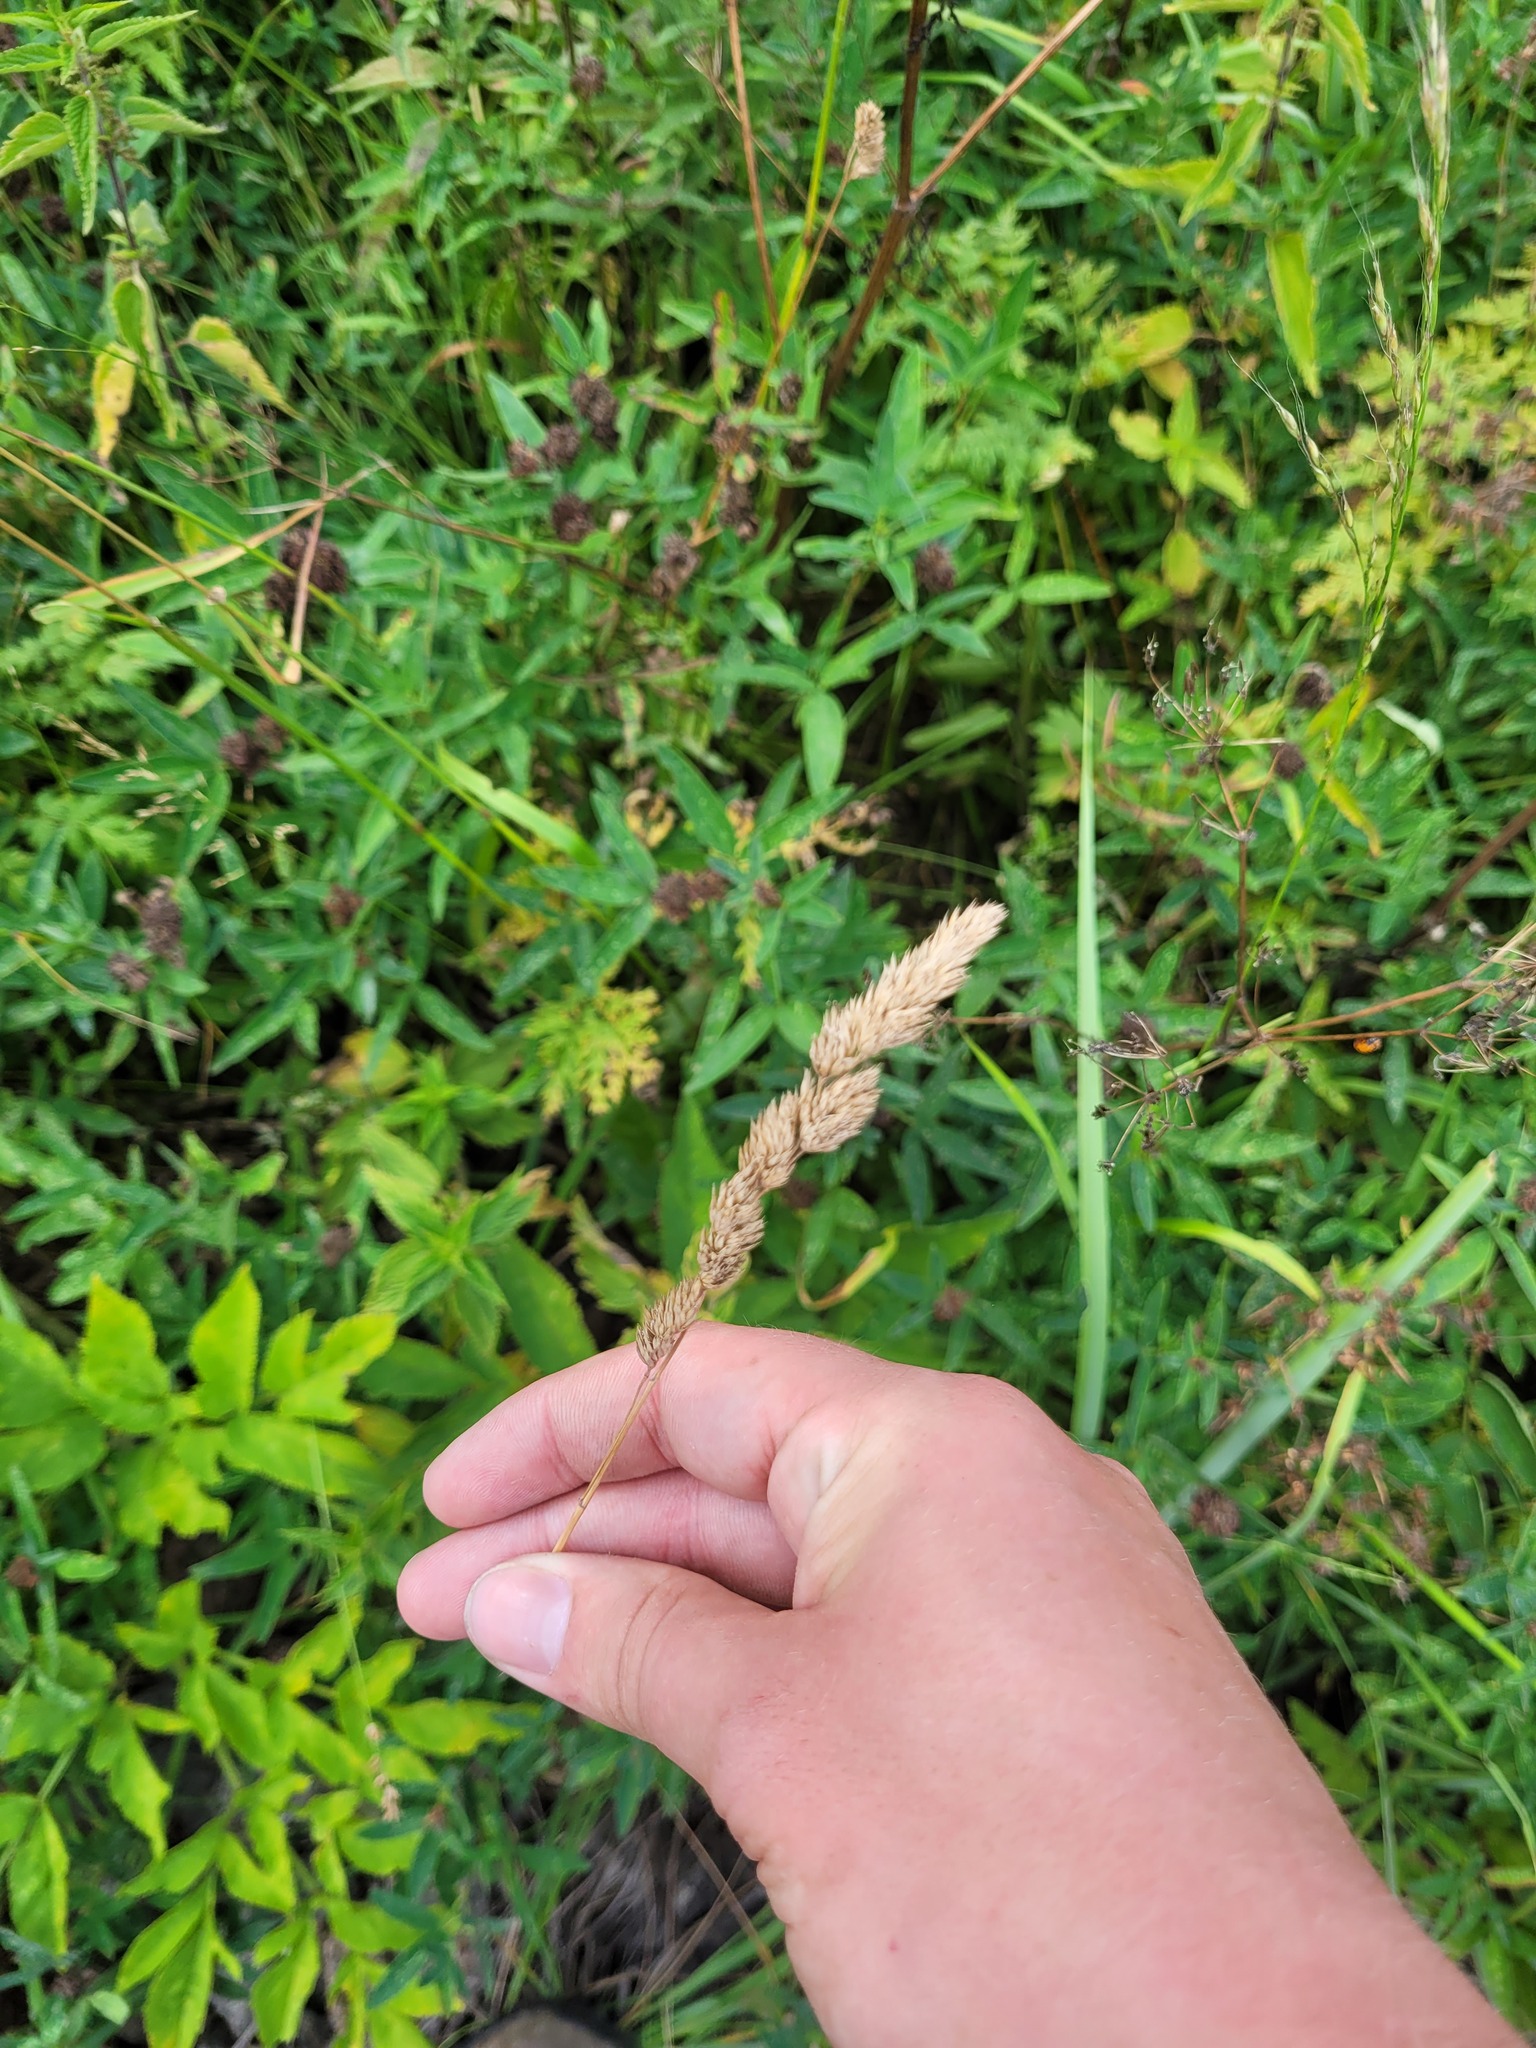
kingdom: Plantae
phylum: Tracheophyta
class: Liliopsida
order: Poales
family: Poaceae
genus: Dactylis
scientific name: Dactylis glomerata
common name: Orchardgrass
